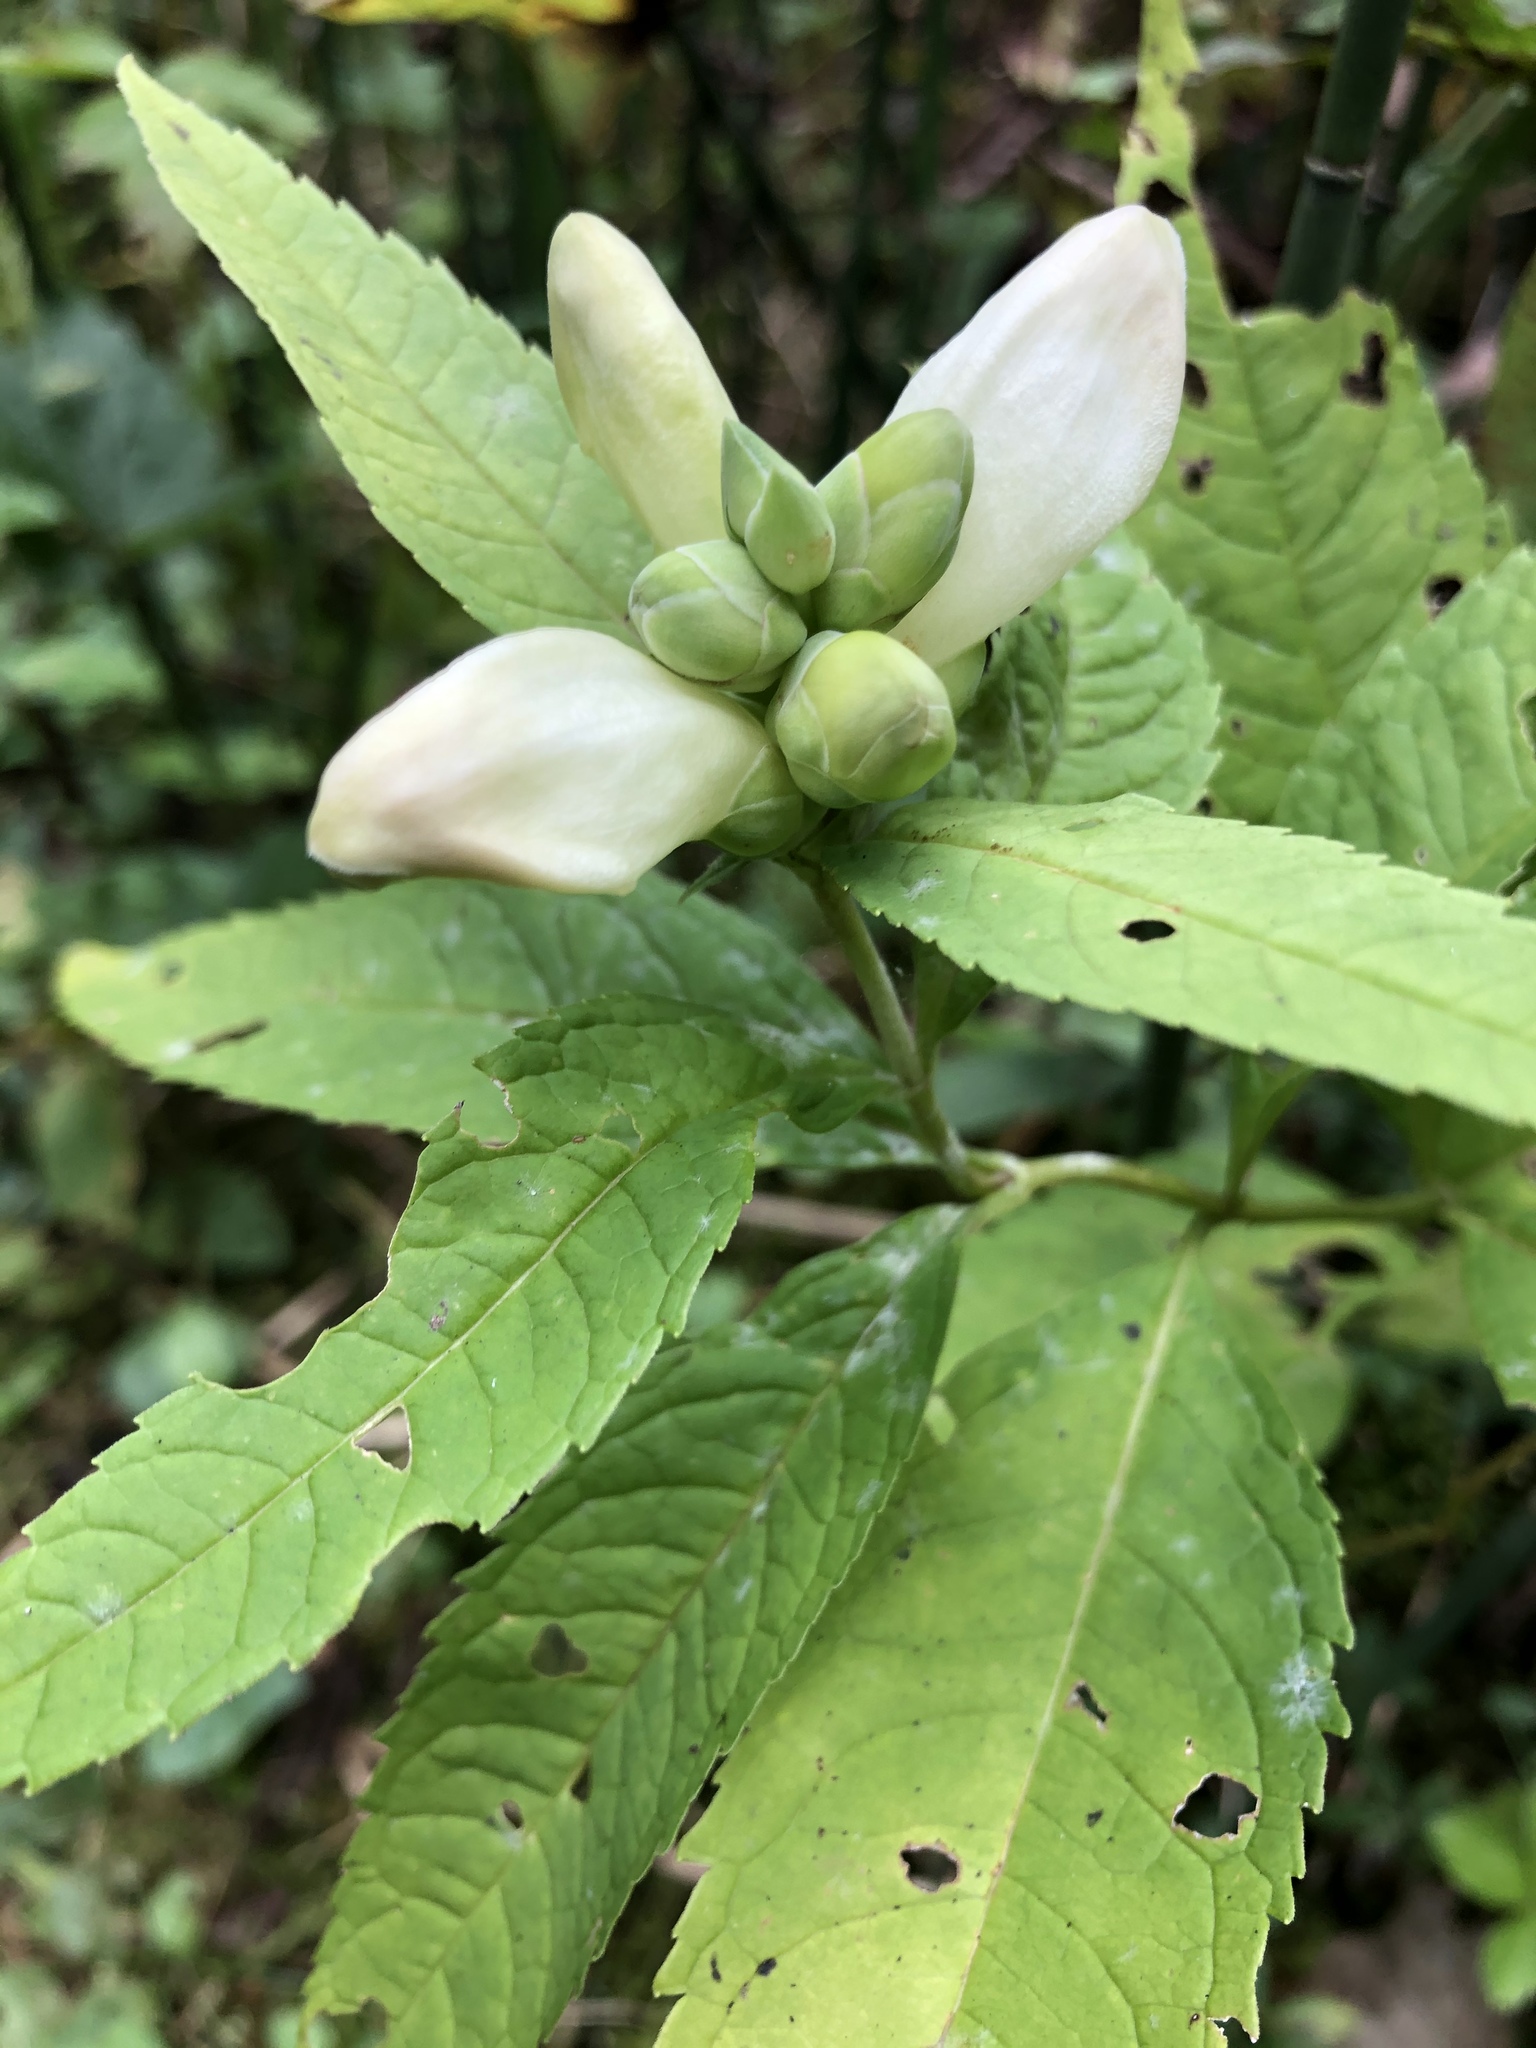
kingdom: Plantae
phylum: Tracheophyta
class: Magnoliopsida
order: Lamiales
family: Plantaginaceae
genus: Chelone
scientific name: Chelone glabra
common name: Snakehead
